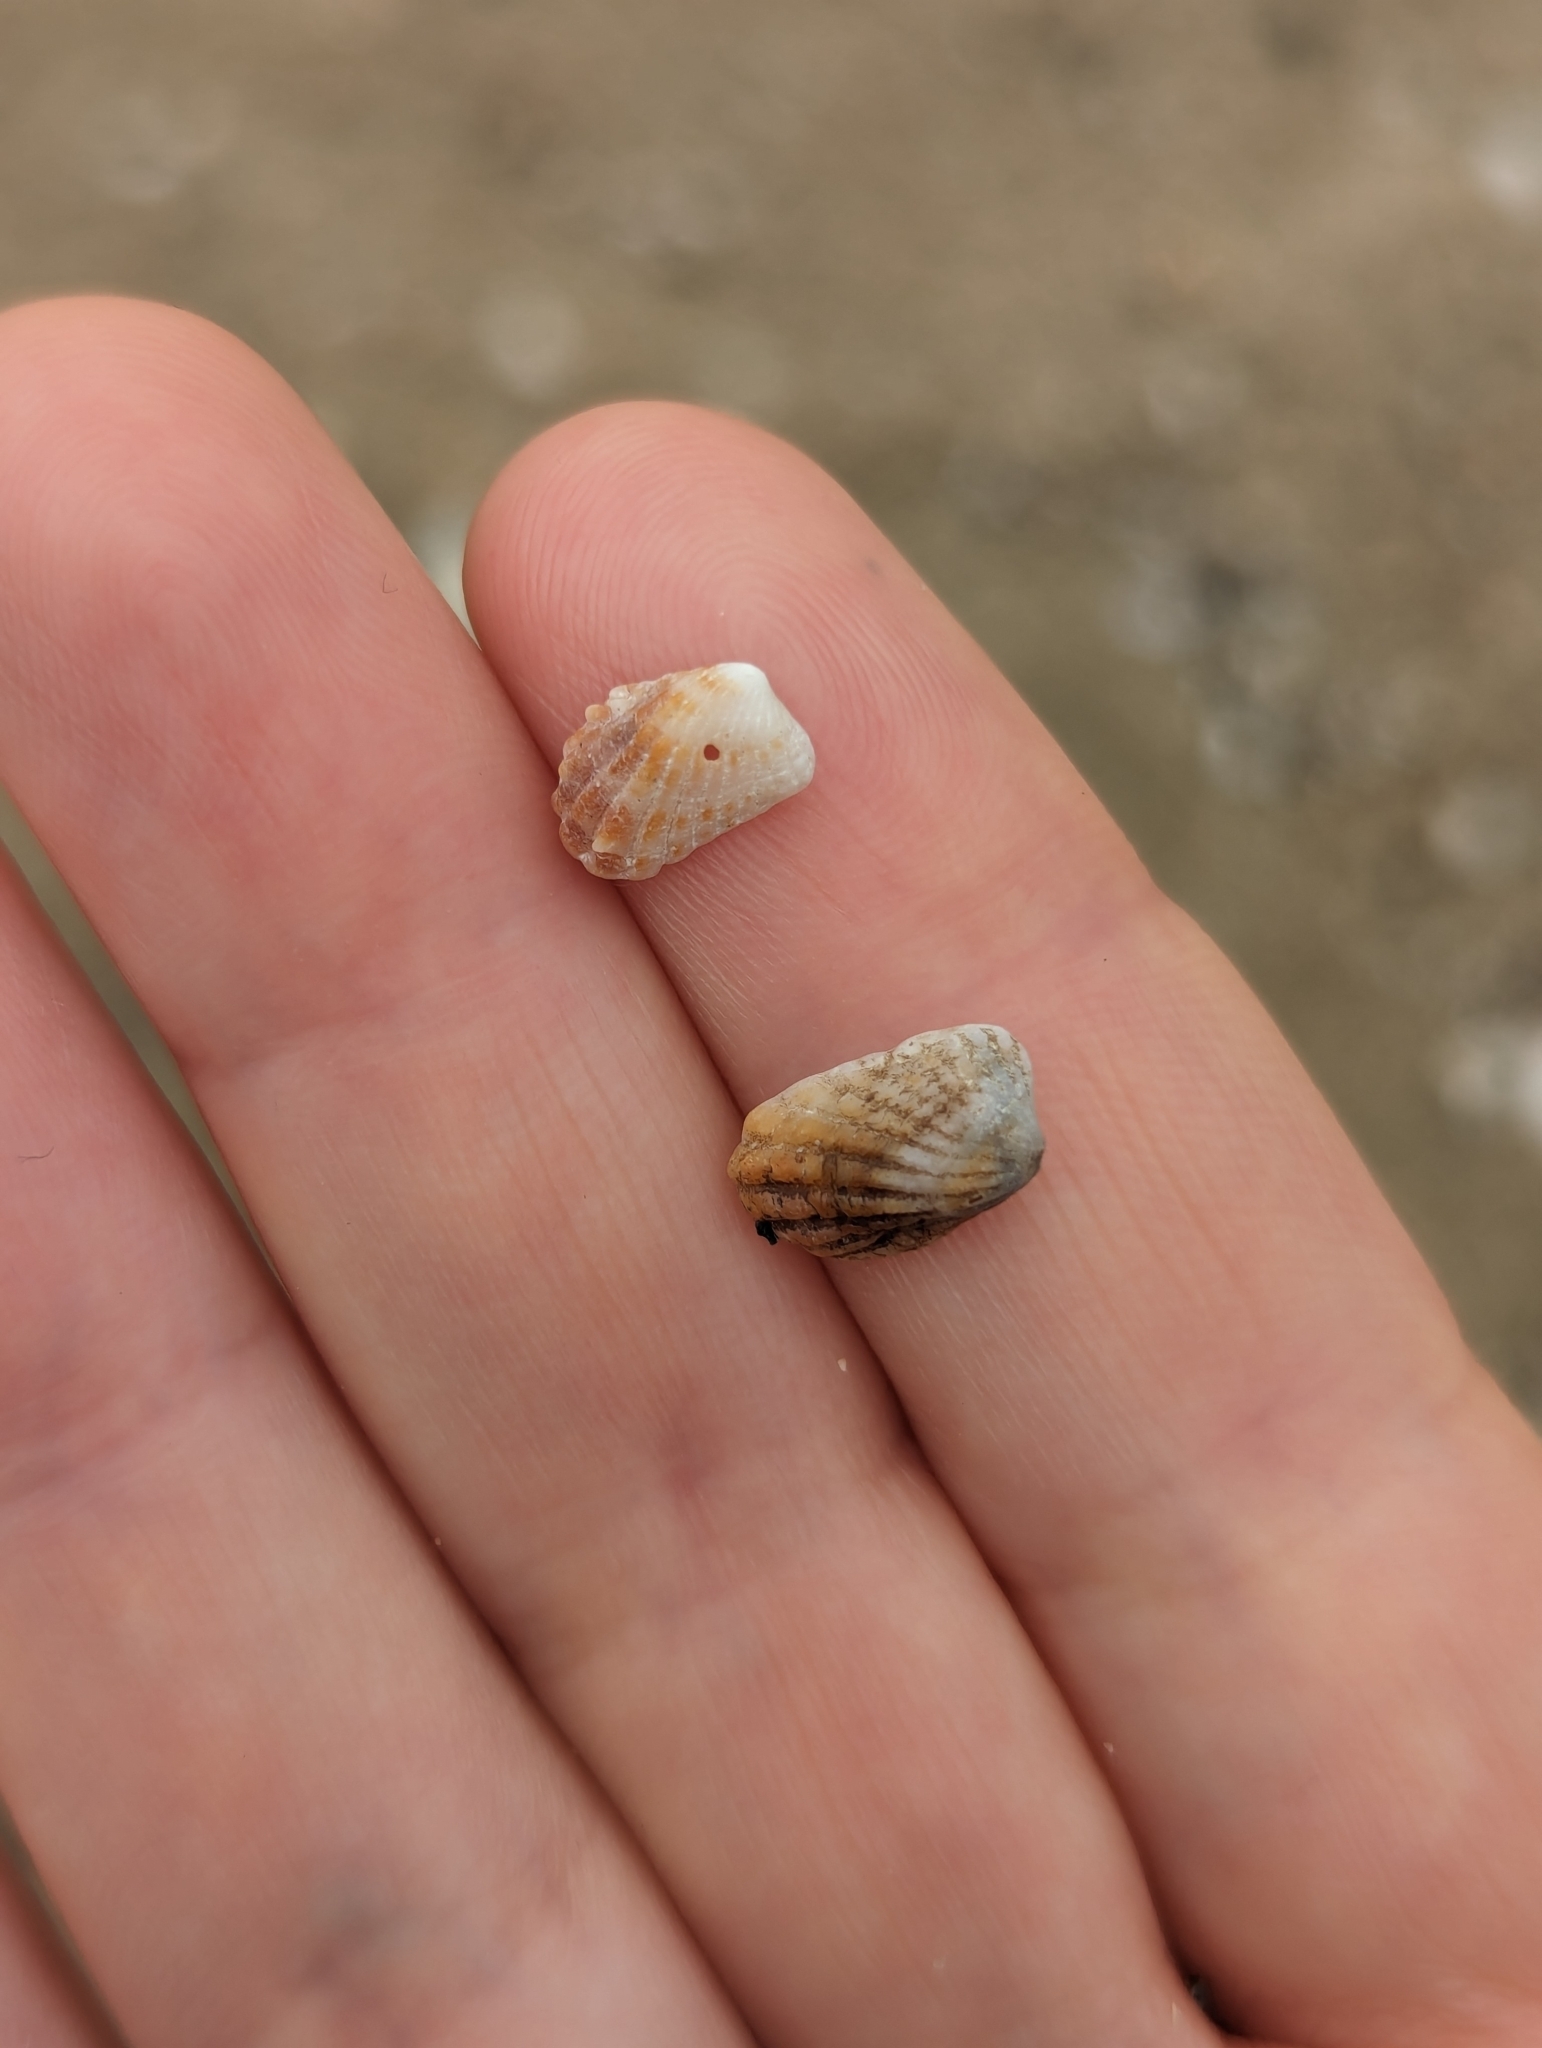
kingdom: Animalia
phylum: Mollusca
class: Bivalvia
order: Carditida
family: Carditidae
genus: Cardita
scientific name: Cardita leana
